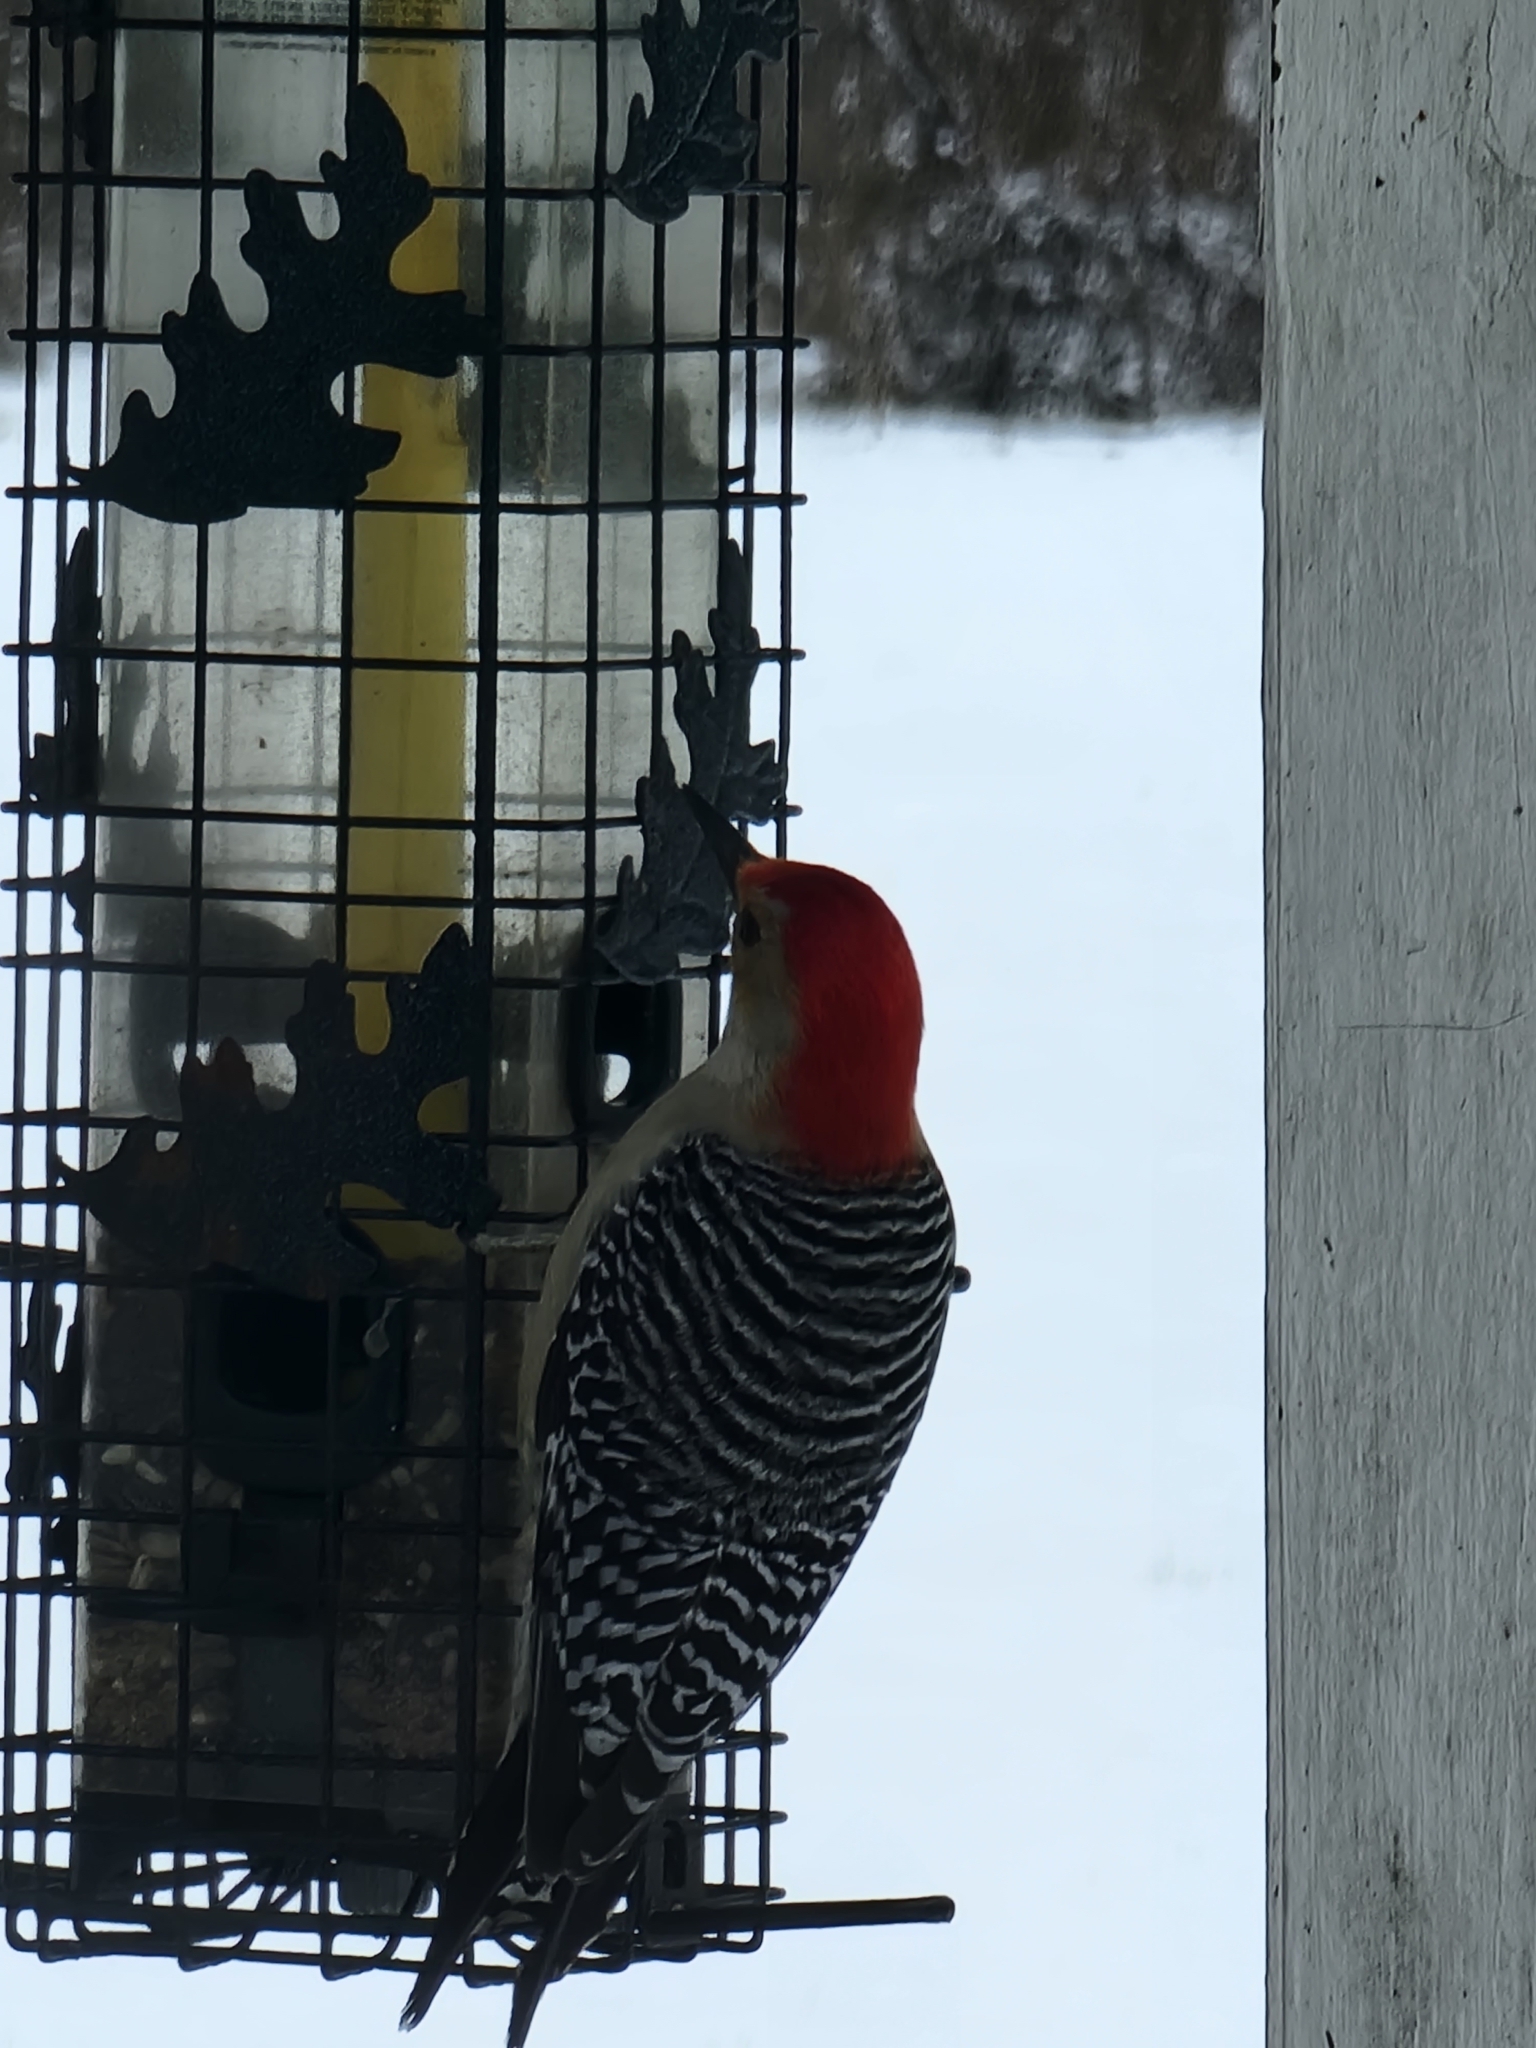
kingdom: Animalia
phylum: Chordata
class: Aves
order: Piciformes
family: Picidae
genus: Melanerpes
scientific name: Melanerpes carolinus
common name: Red-bellied woodpecker
